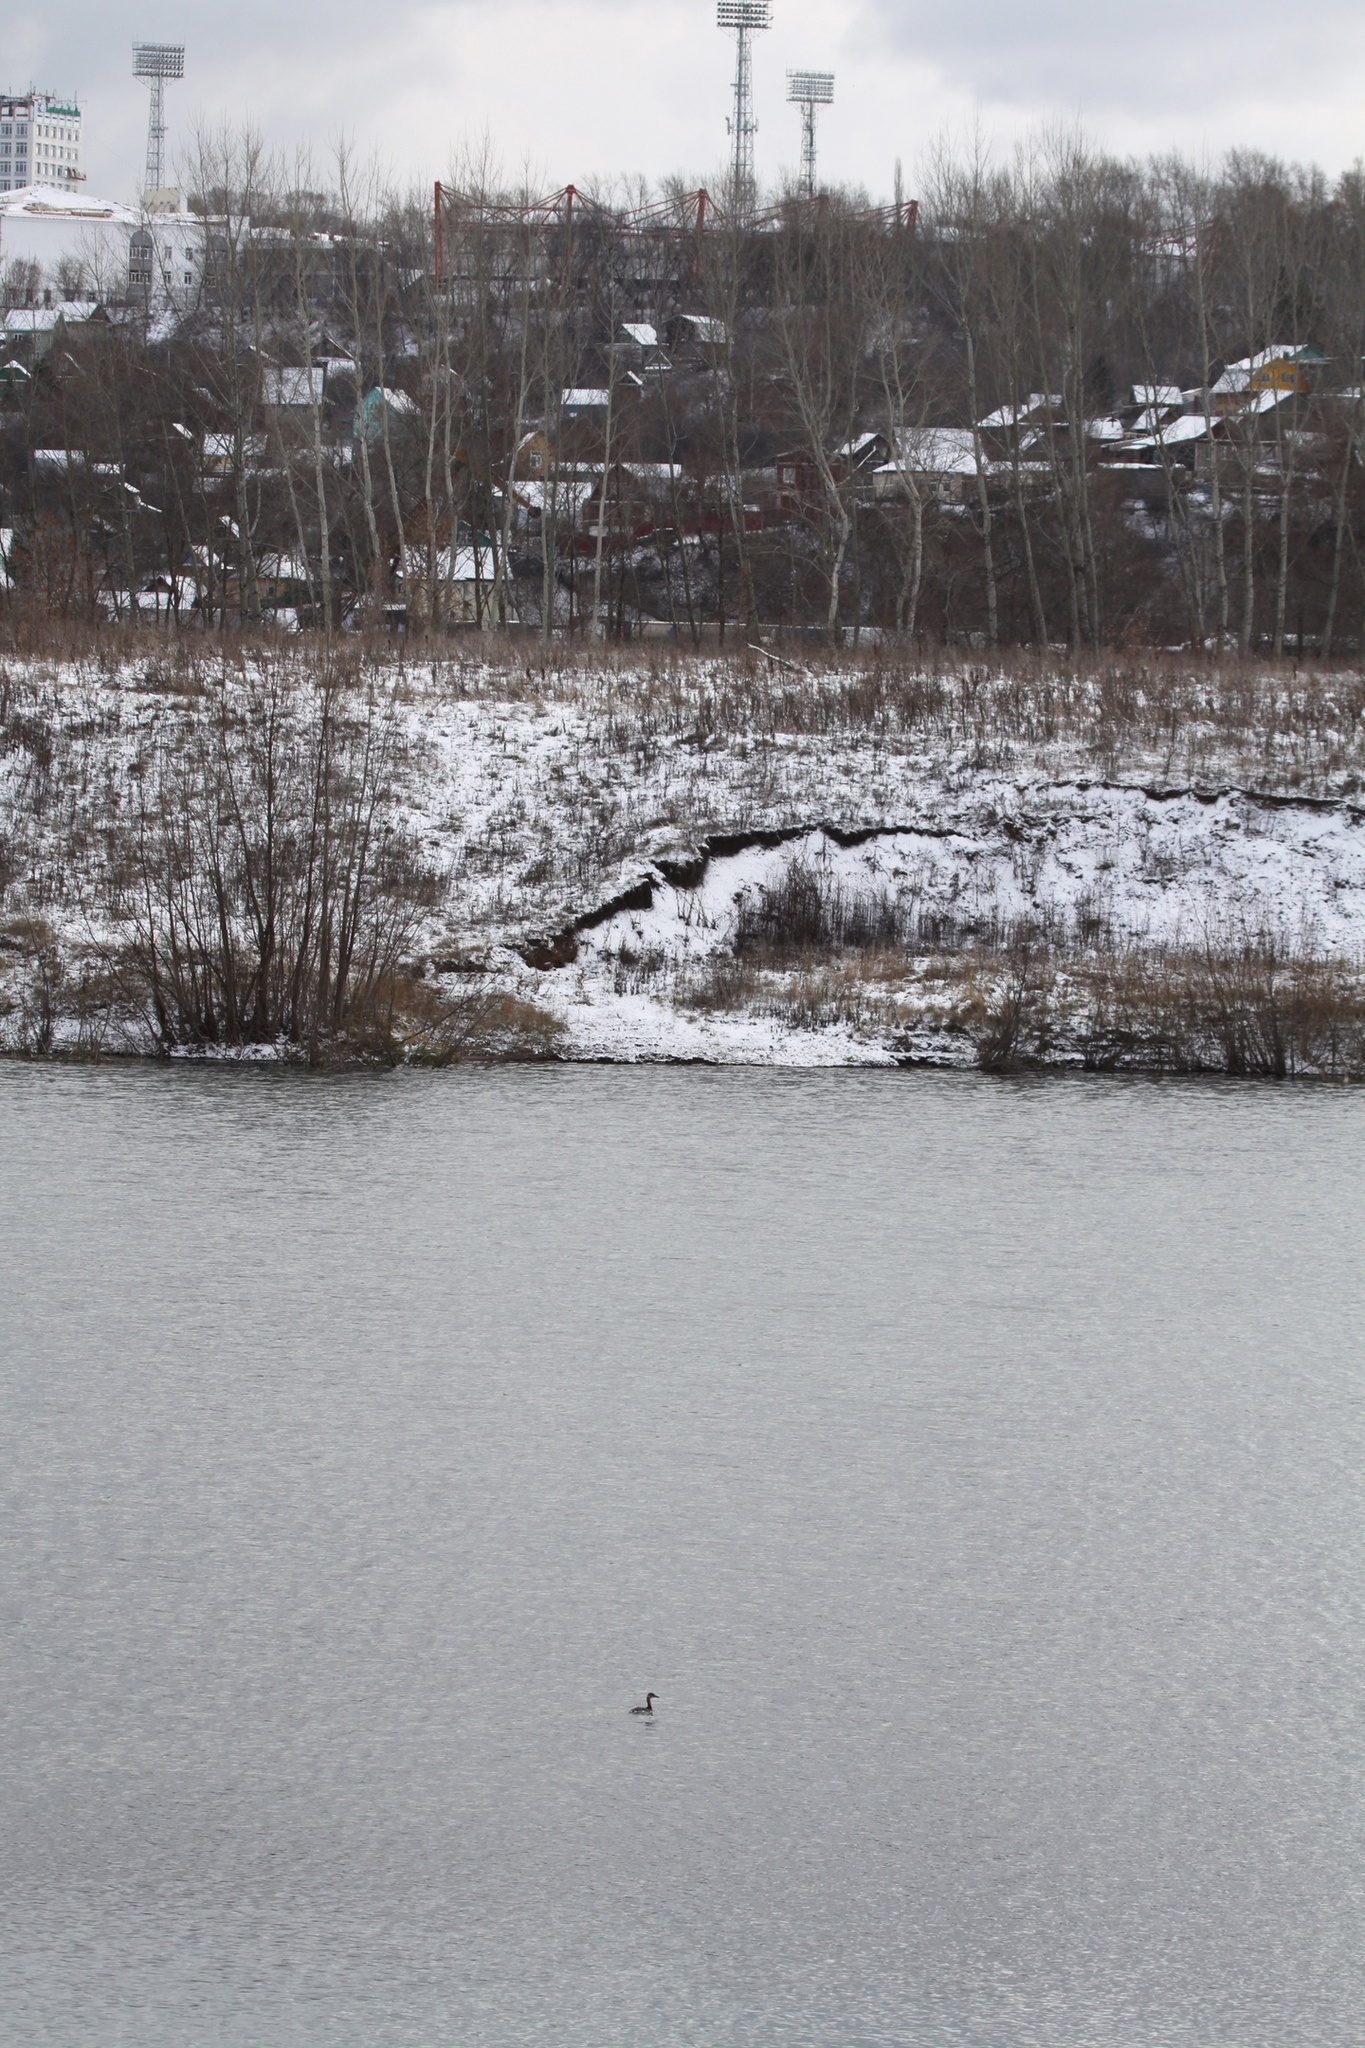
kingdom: Animalia
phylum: Chordata
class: Aves
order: Podicipediformes
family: Podicipedidae
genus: Podiceps
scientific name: Podiceps grisegena
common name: Red-necked grebe
